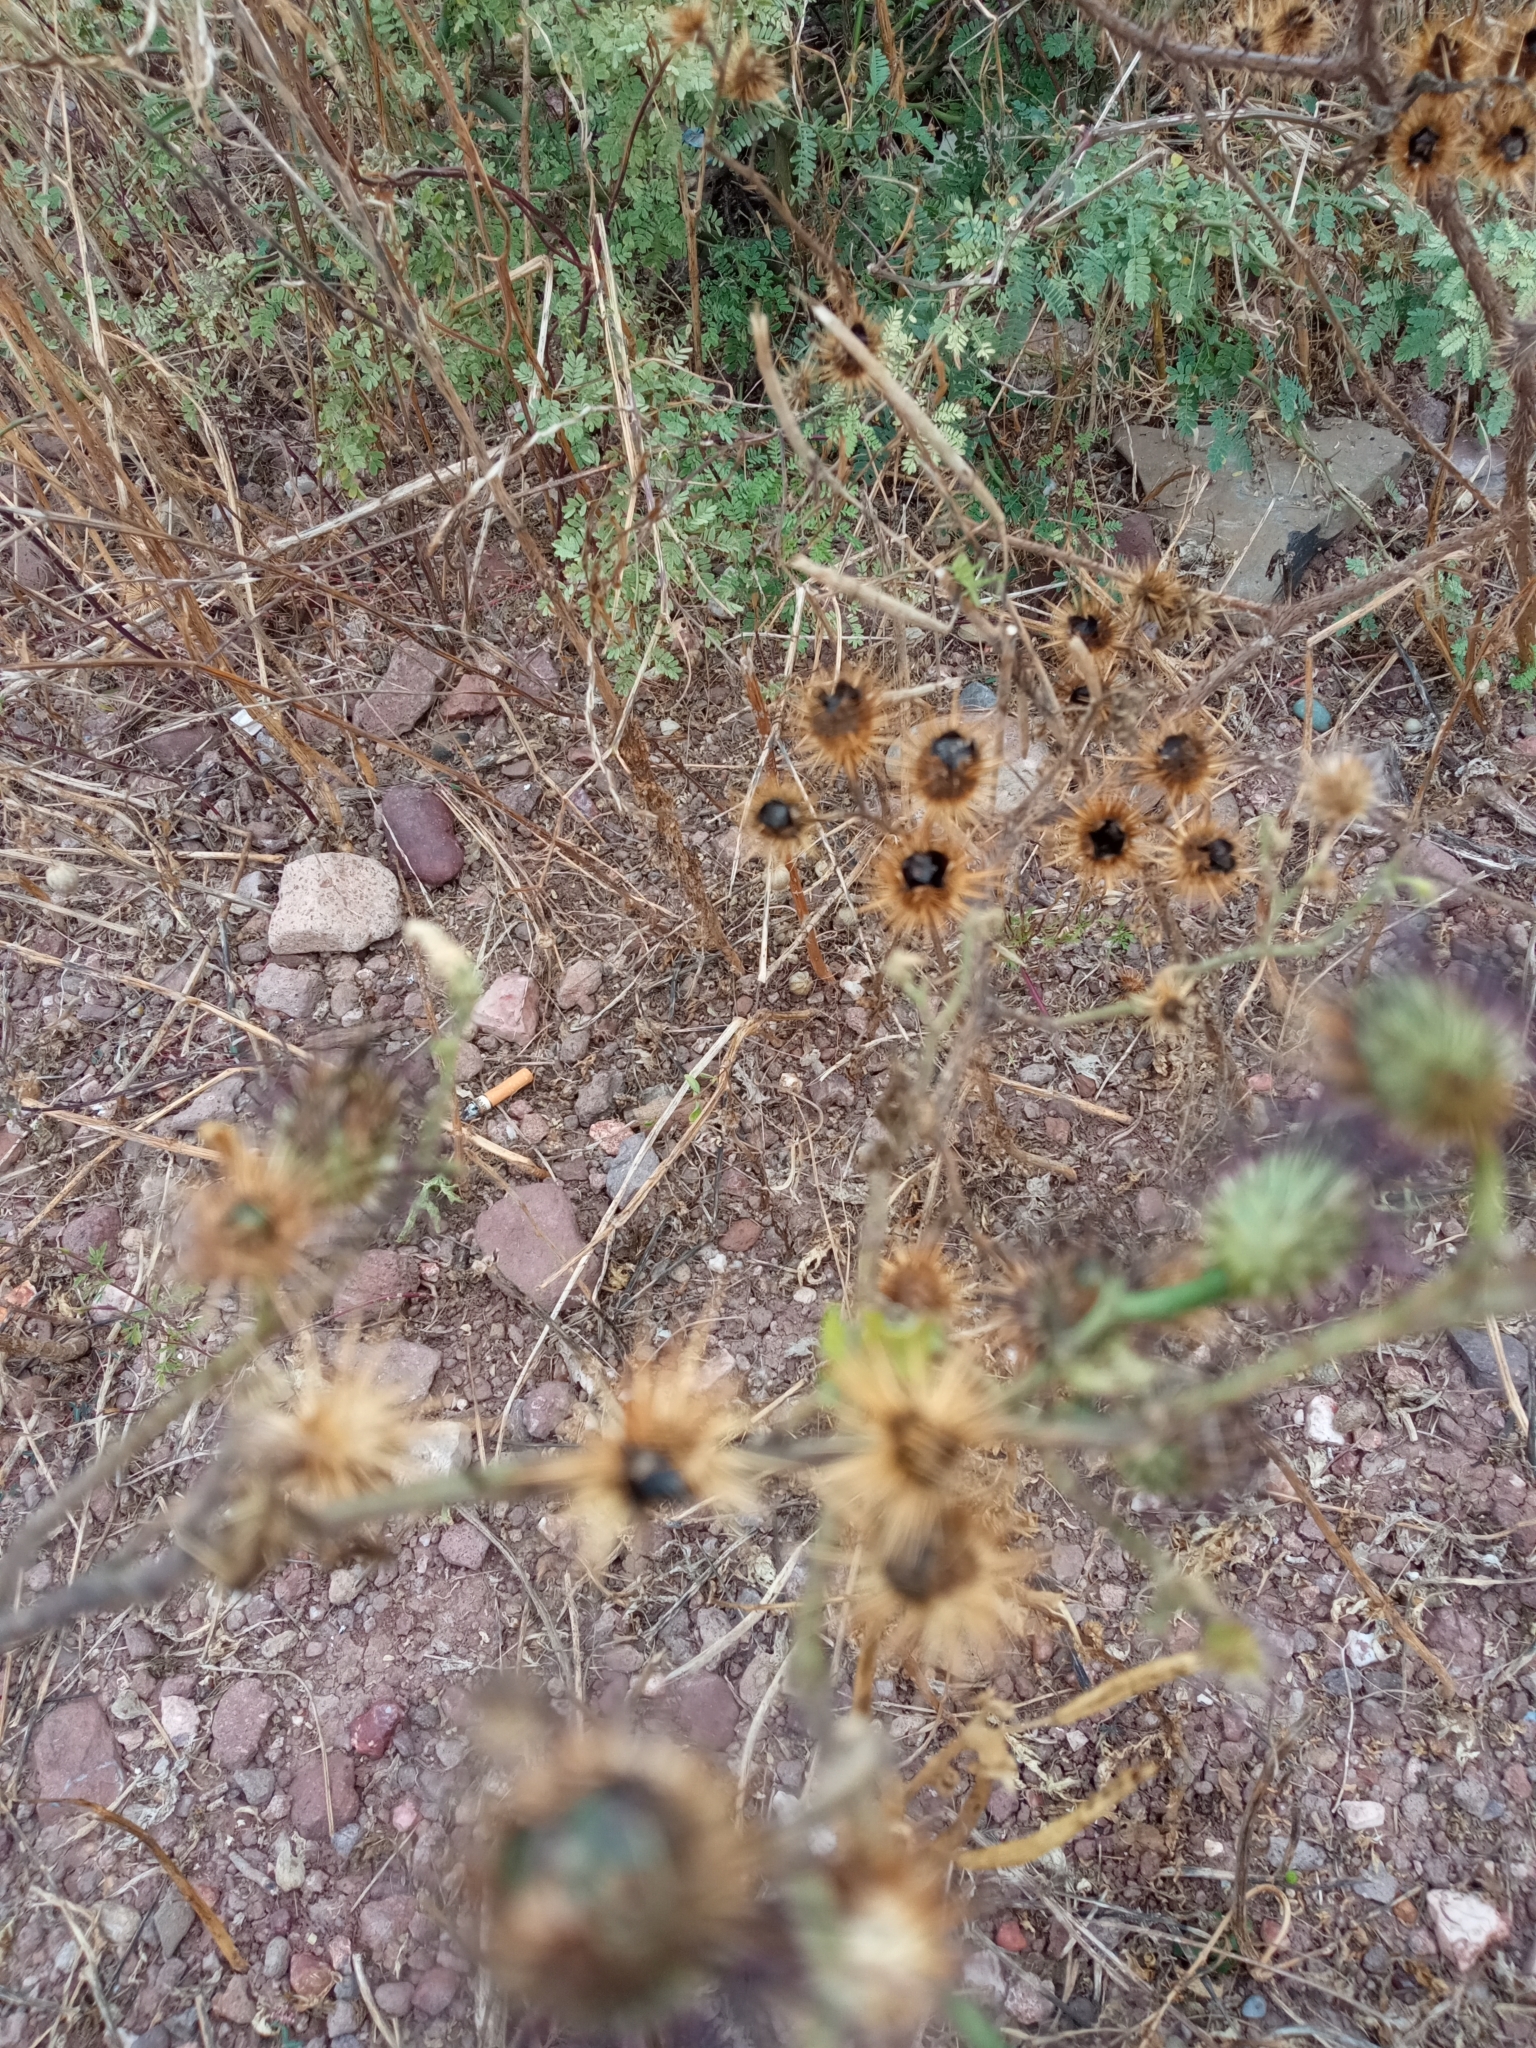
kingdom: Plantae
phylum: Tracheophyta
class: Magnoliopsida
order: Solanales
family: Solanaceae
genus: Solanum
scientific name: Solanum grayi
